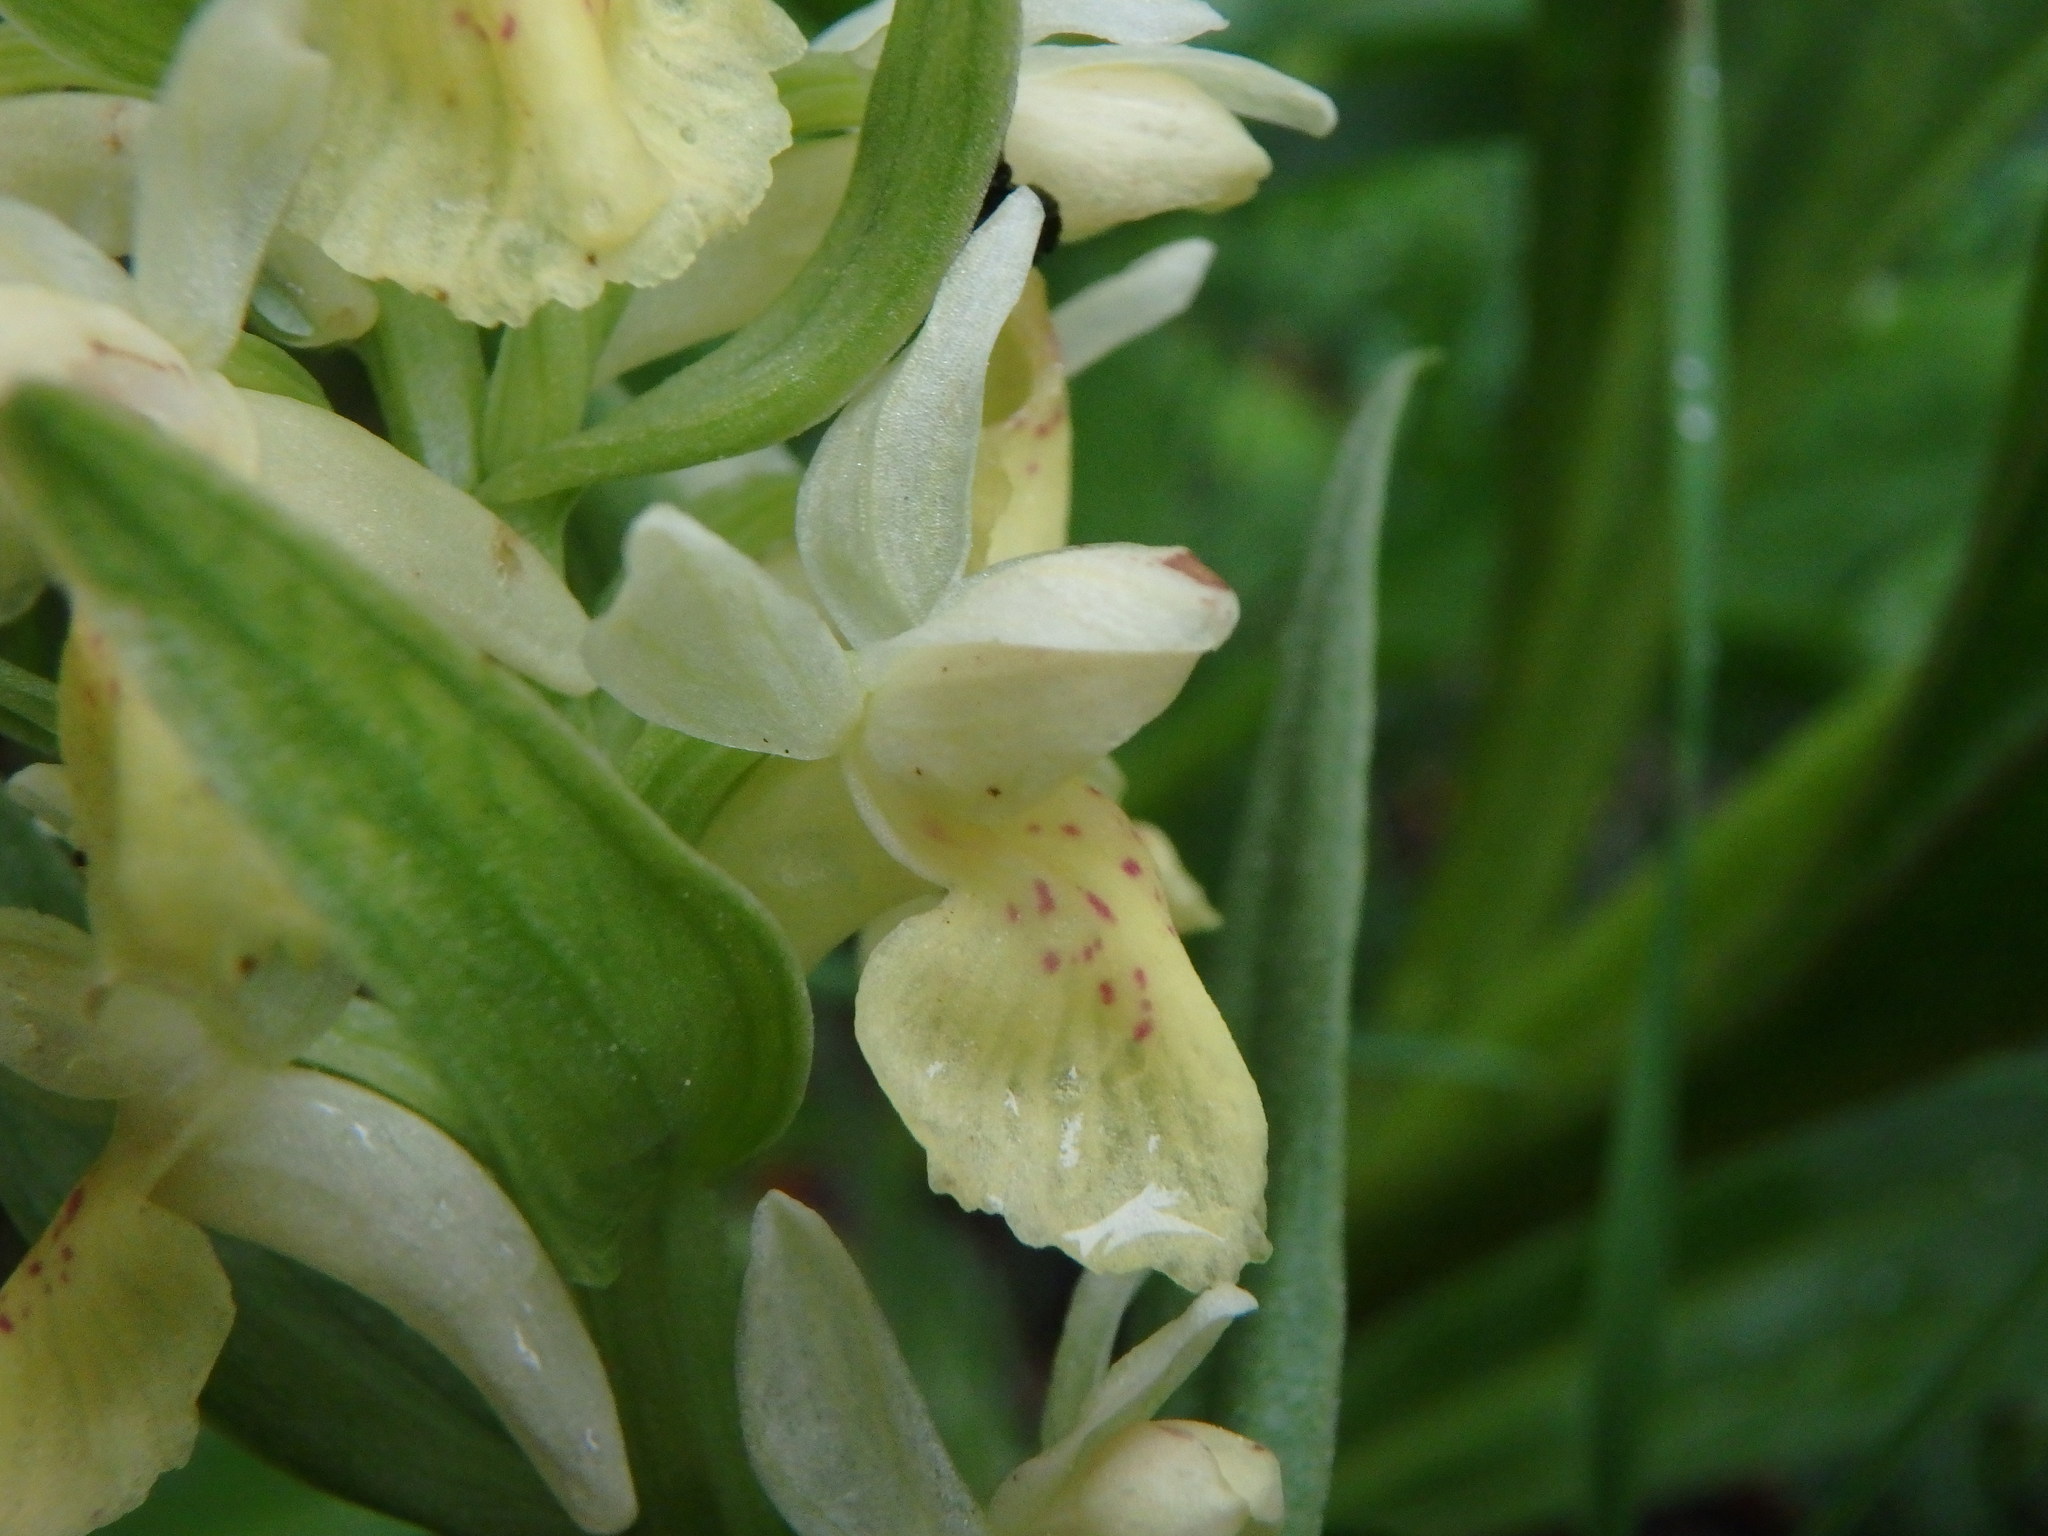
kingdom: Plantae
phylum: Tracheophyta
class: Liliopsida
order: Asparagales
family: Orchidaceae
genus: Dactylorhiza
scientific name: Dactylorhiza sambucina
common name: Elder-flowered orchid
